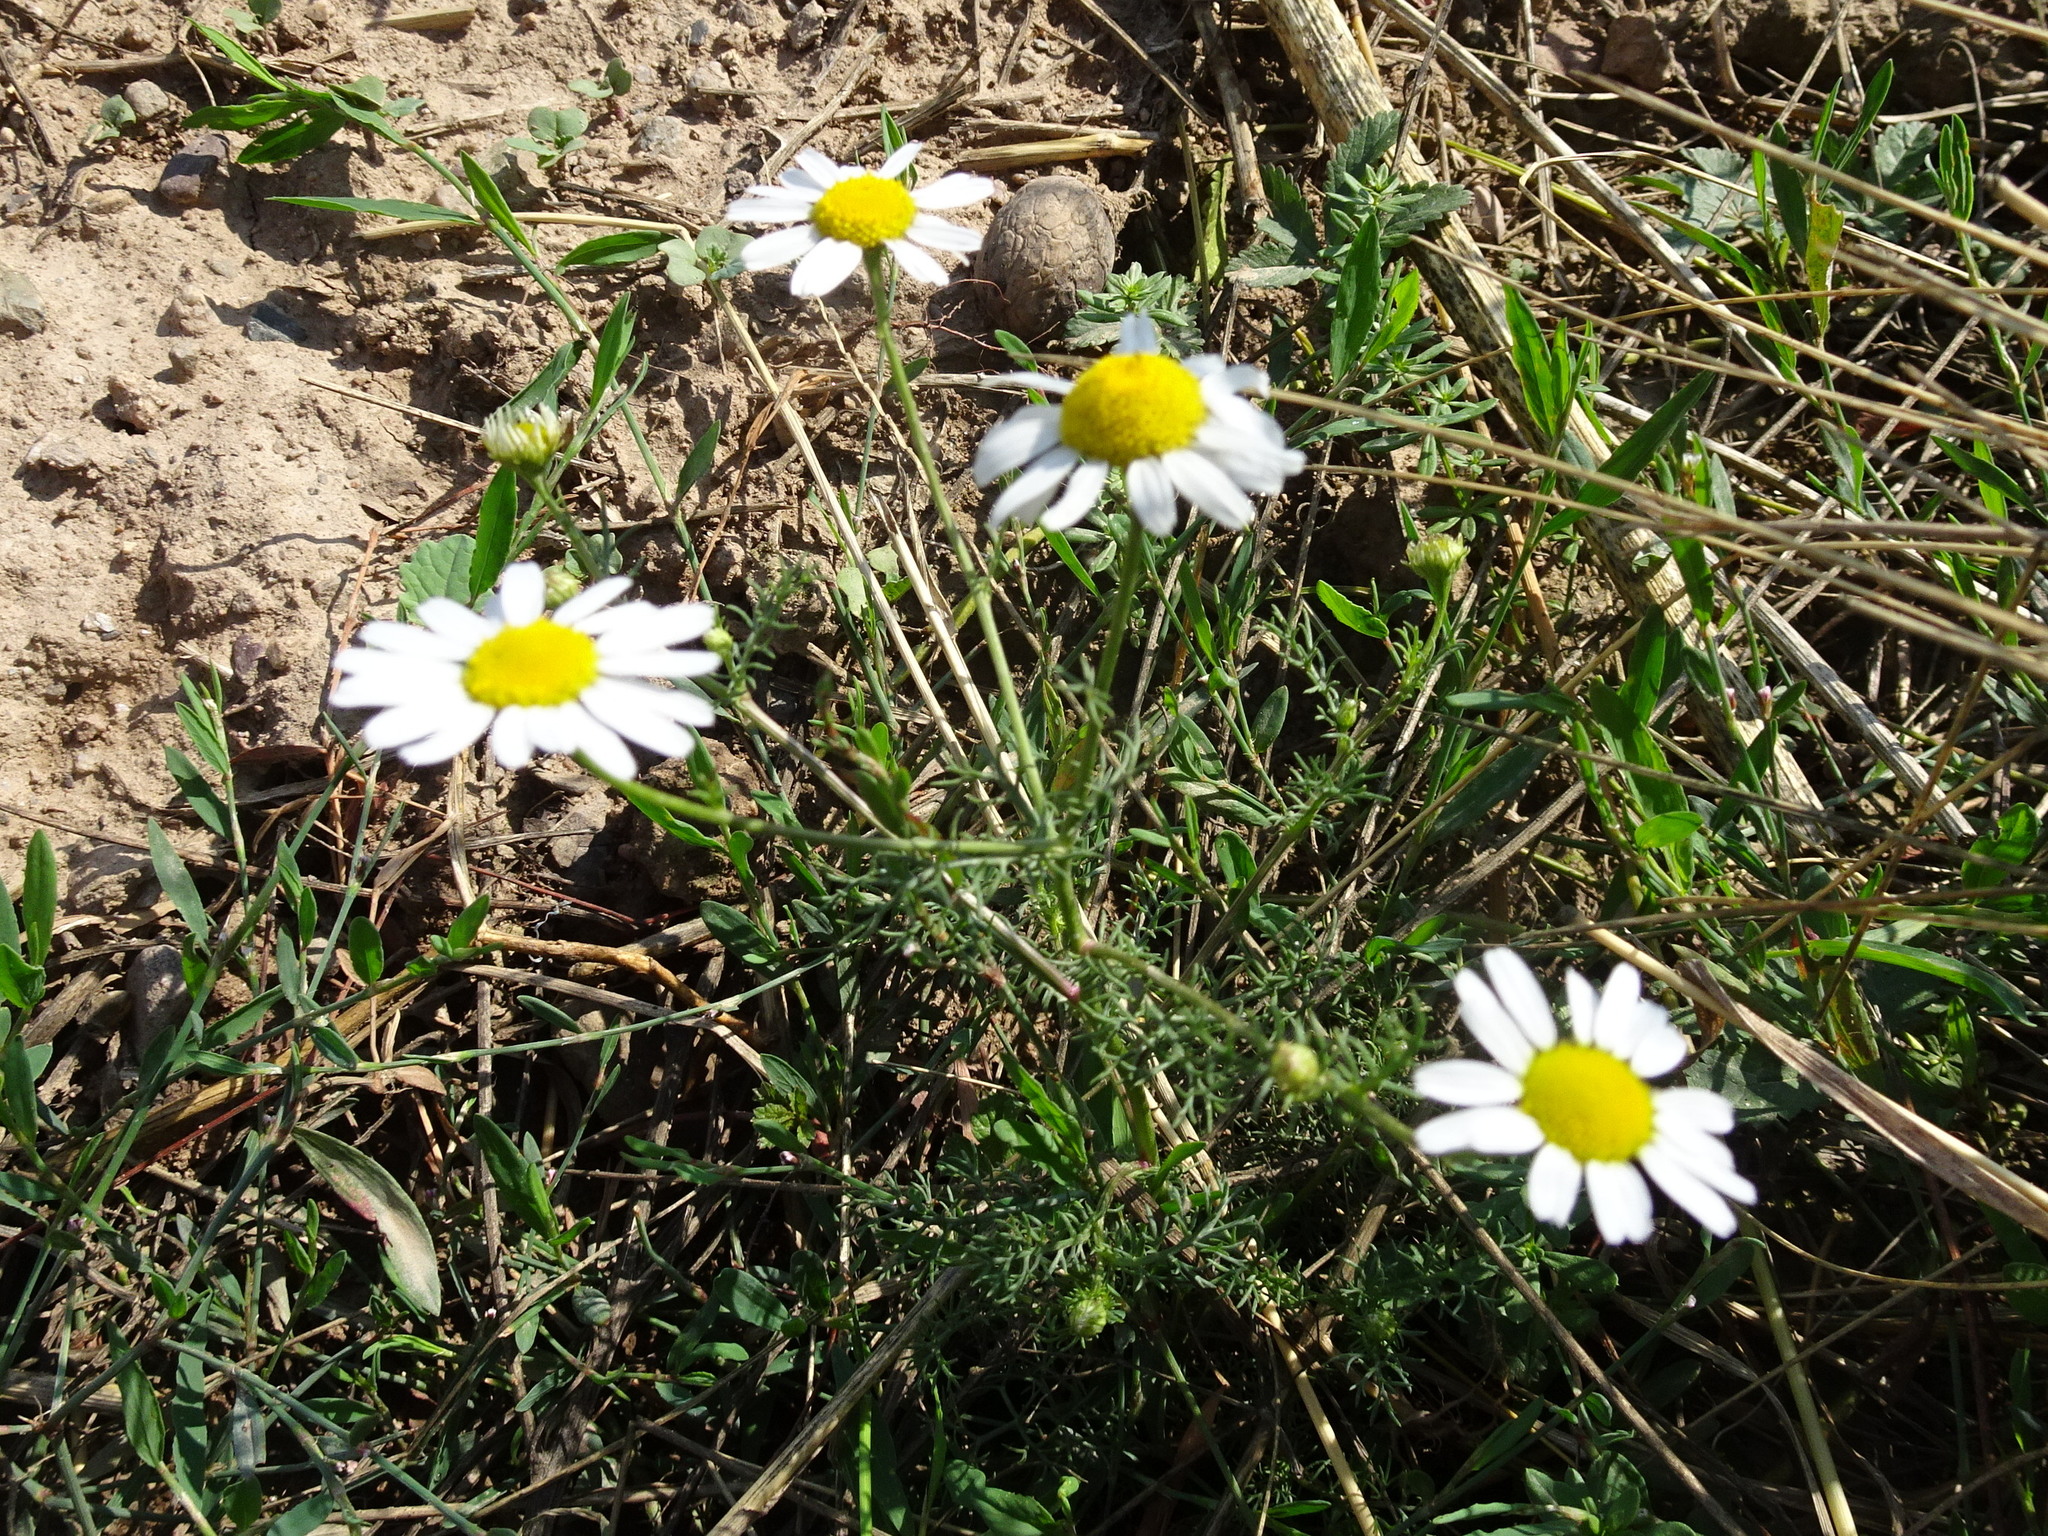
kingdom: Plantae
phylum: Tracheophyta
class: Magnoliopsida
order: Asterales
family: Asteraceae
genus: Matricaria
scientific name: Matricaria chamomilla
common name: Scented mayweed
